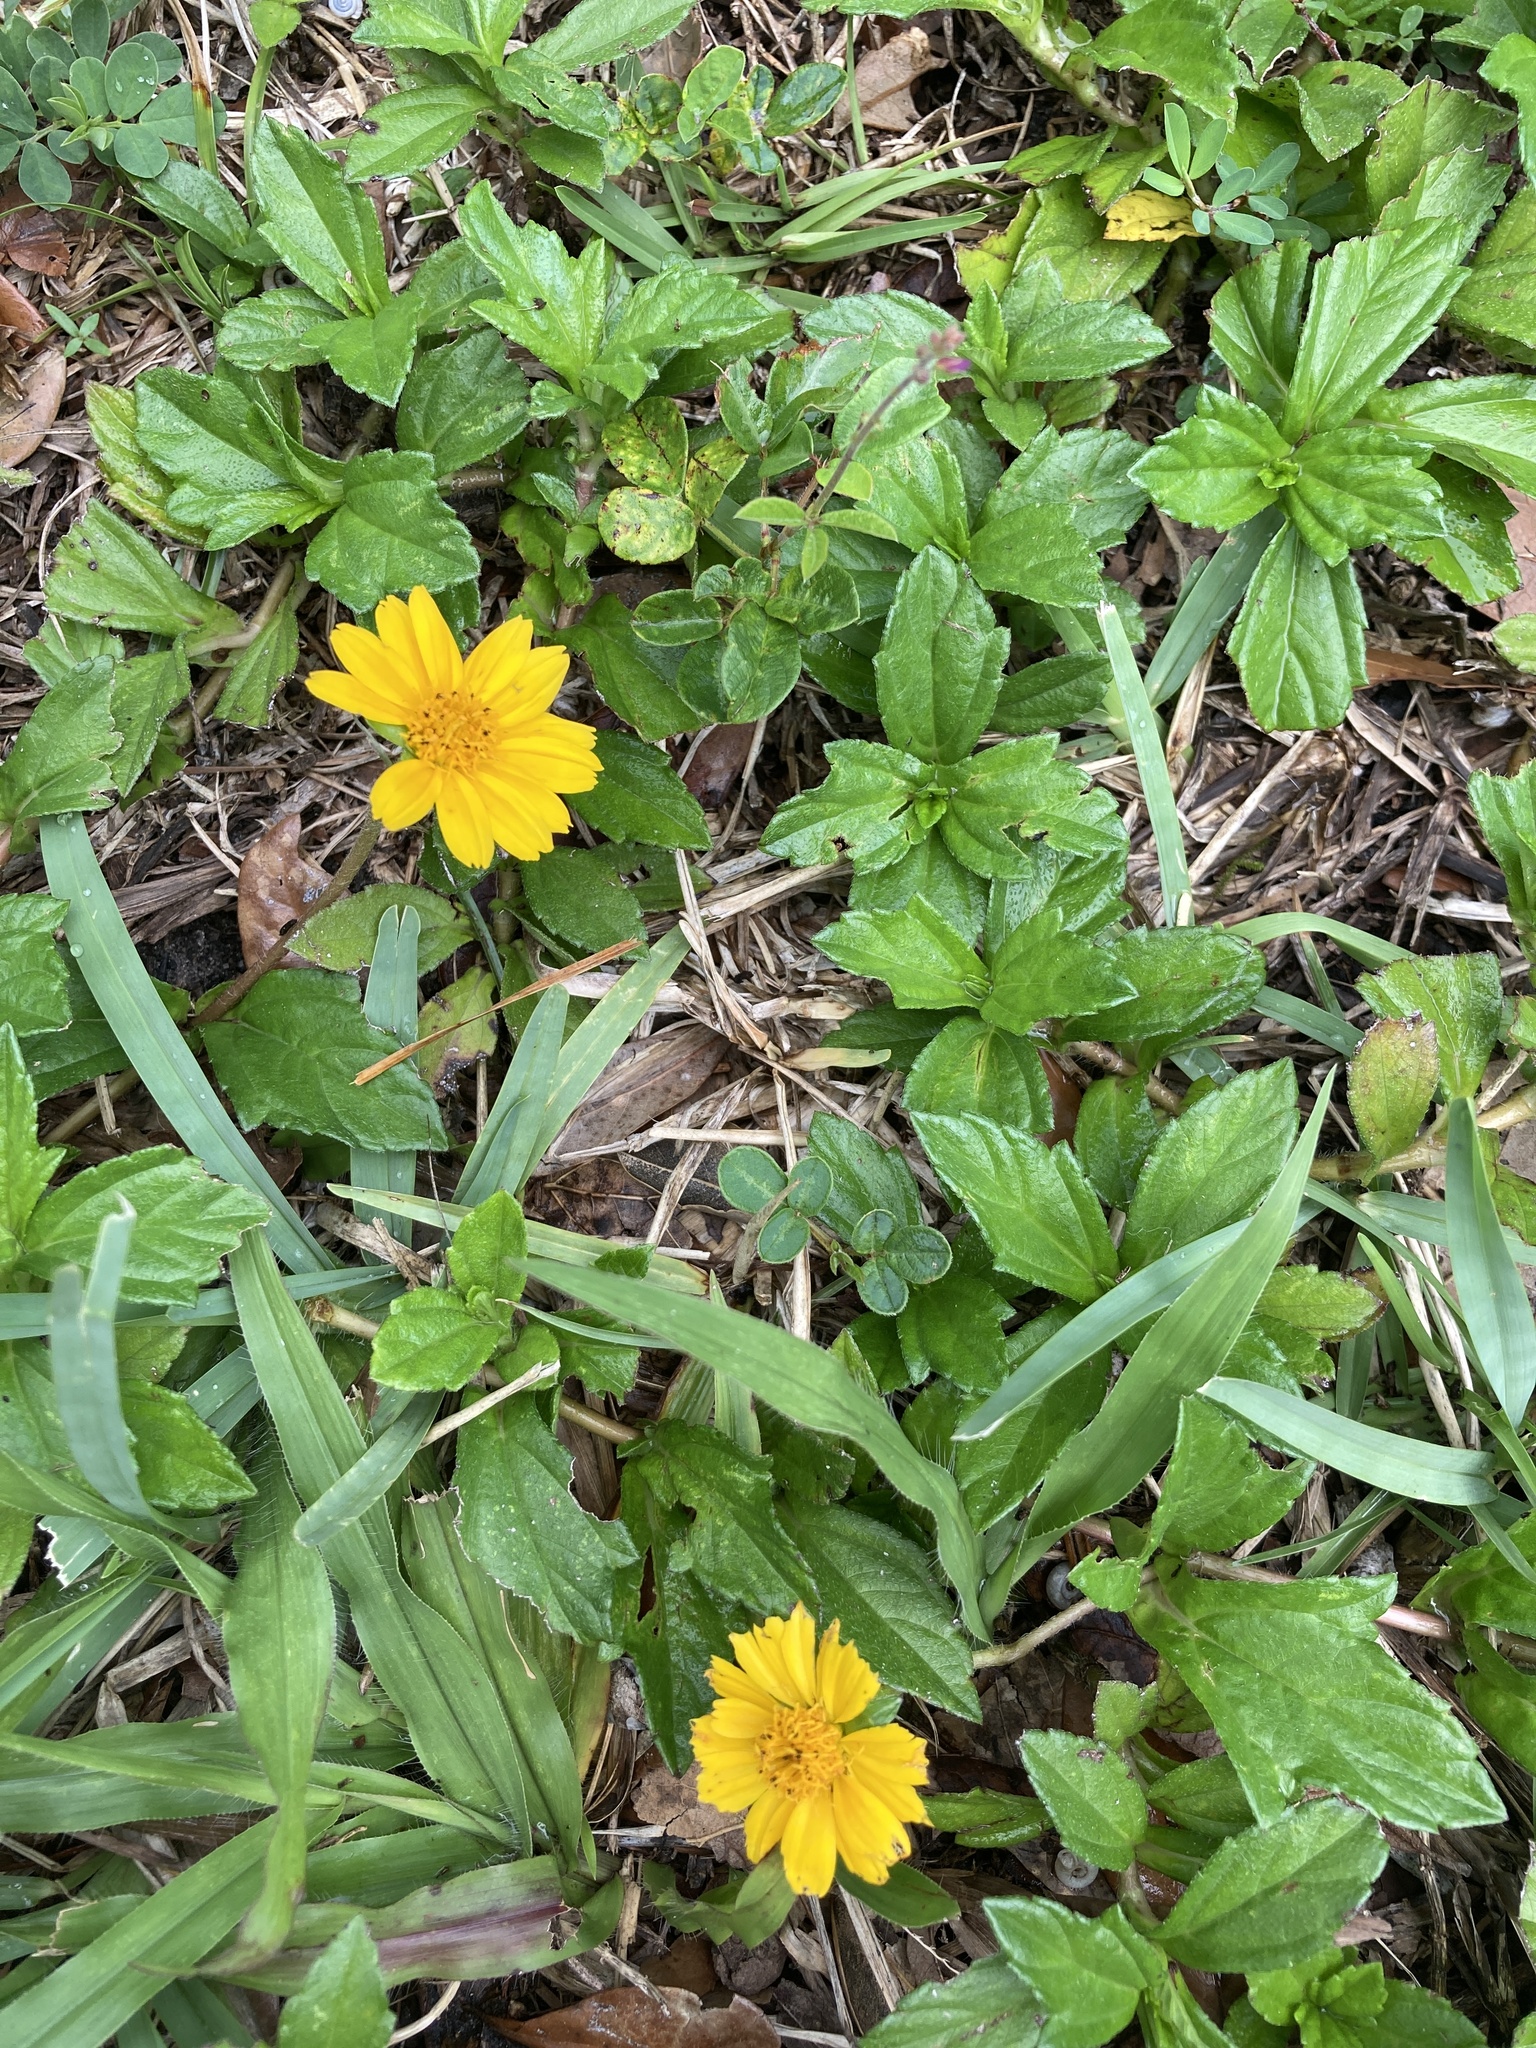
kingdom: Plantae
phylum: Tracheophyta
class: Magnoliopsida
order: Asterales
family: Asteraceae
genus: Sphagneticola
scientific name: Sphagneticola trilobata
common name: Bay biscayne creeping-oxeye
